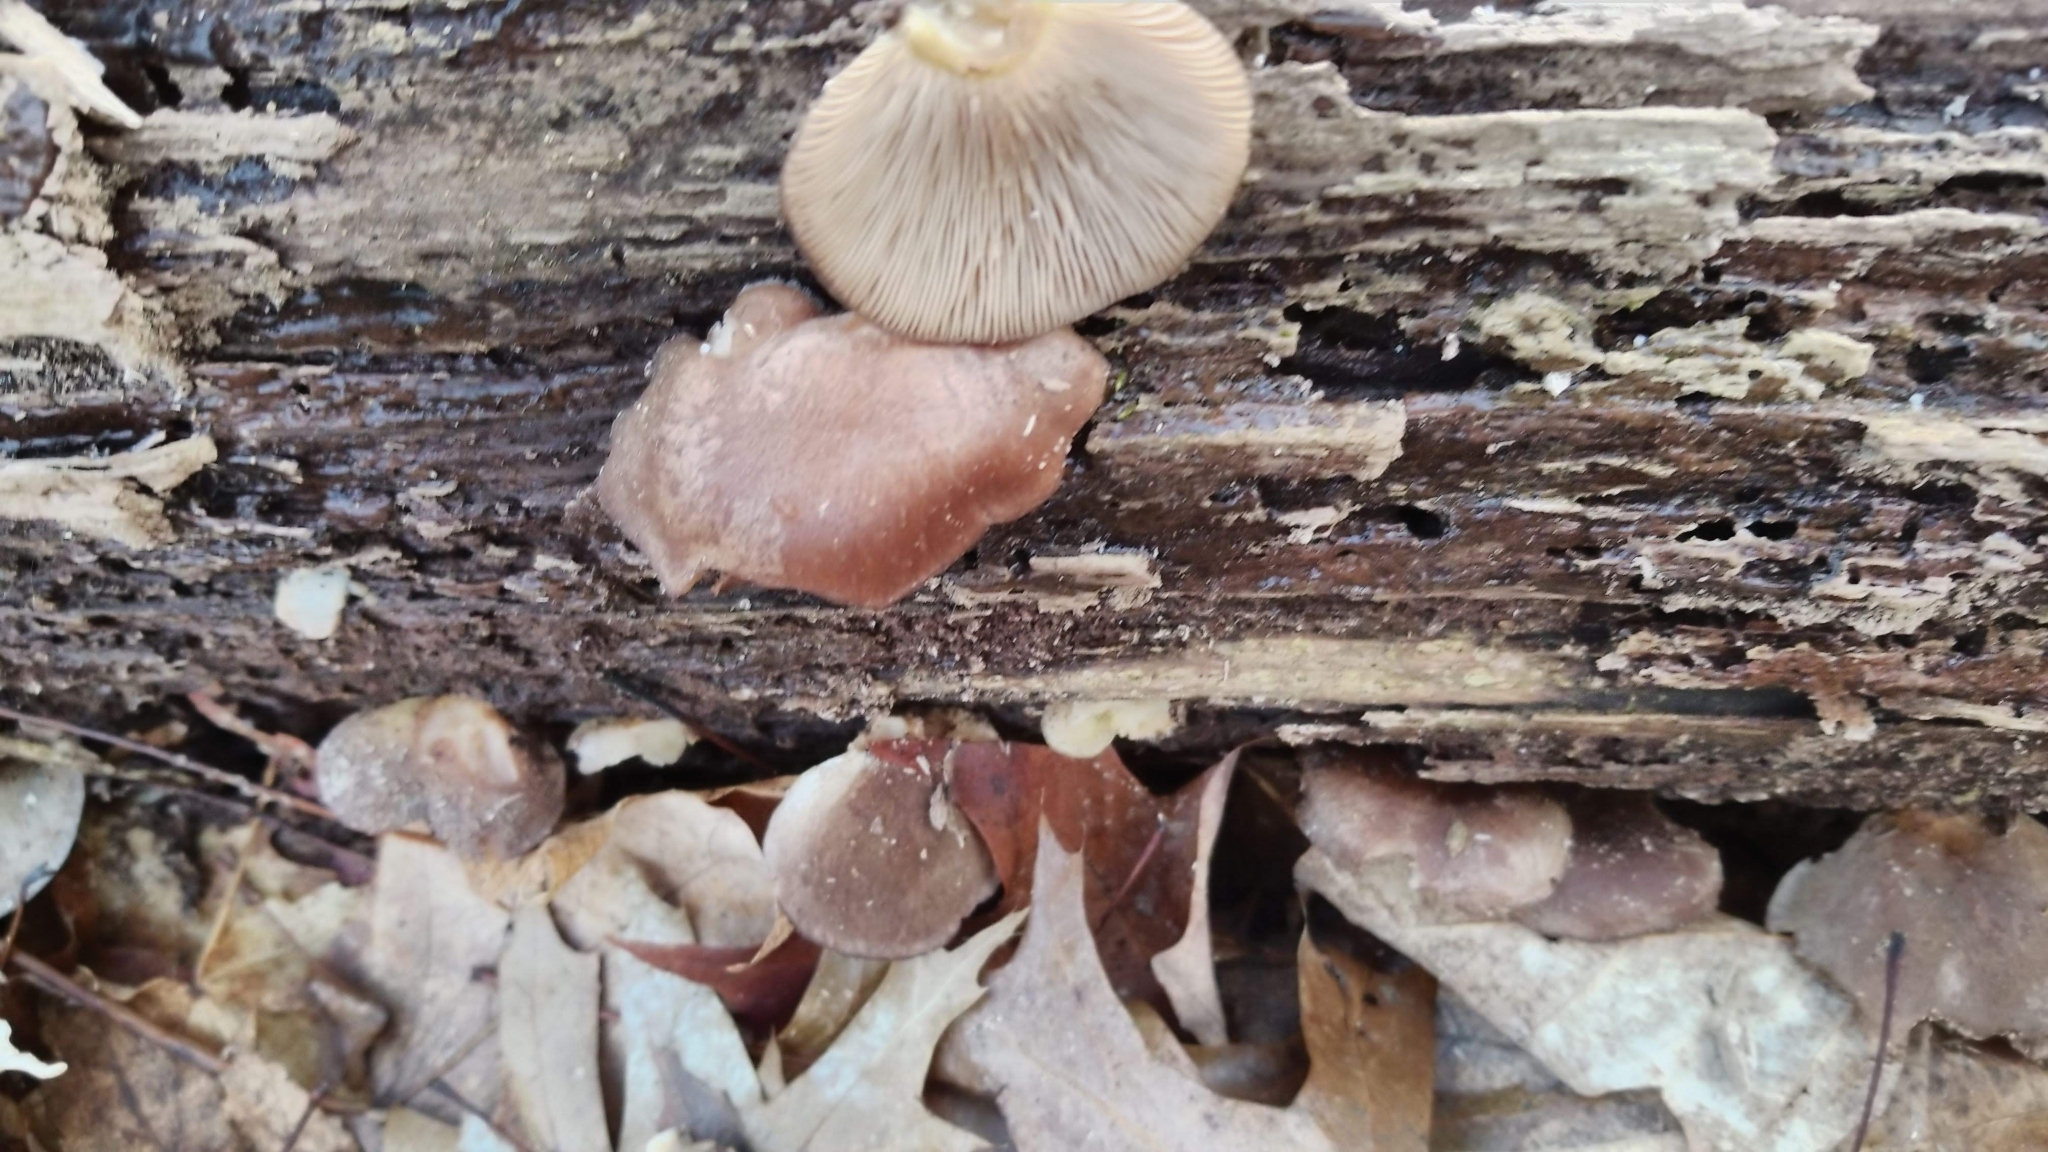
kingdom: Fungi
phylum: Basidiomycota
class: Agaricomycetes
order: Agaricales
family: Sarcomyxaceae
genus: Sarcomyxa
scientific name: Sarcomyxa serotina
